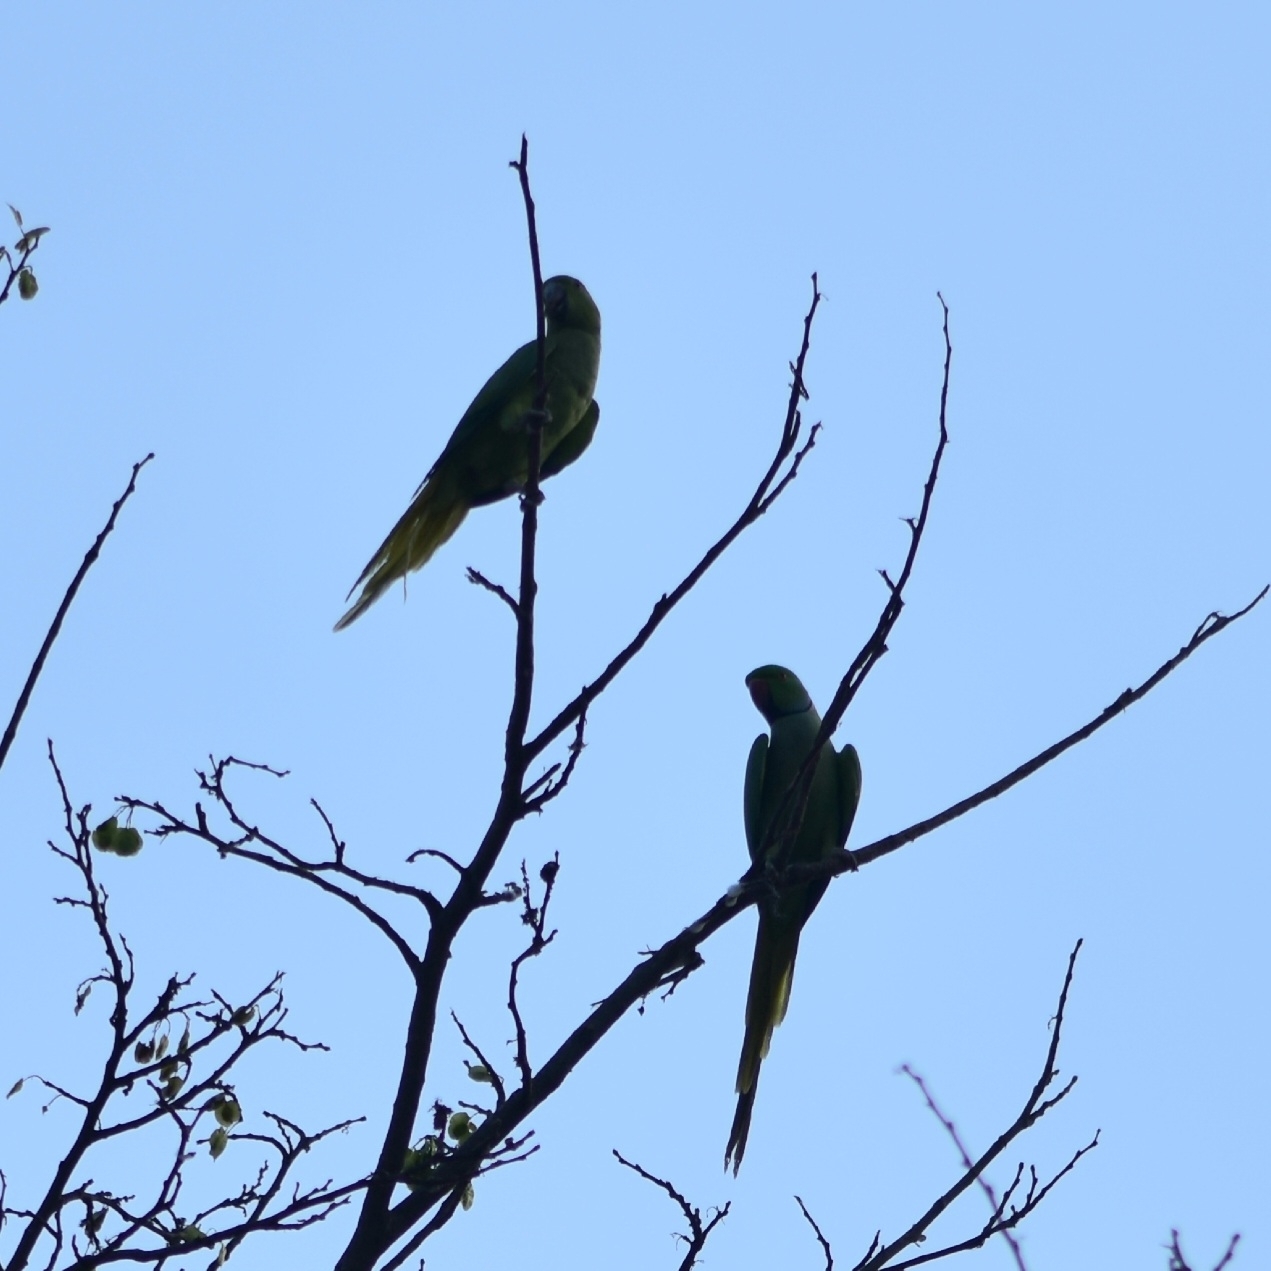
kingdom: Animalia
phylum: Chordata
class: Aves
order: Psittaciformes
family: Psittacidae
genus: Psittacula
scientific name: Psittacula krameri
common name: Rose-ringed parakeet
